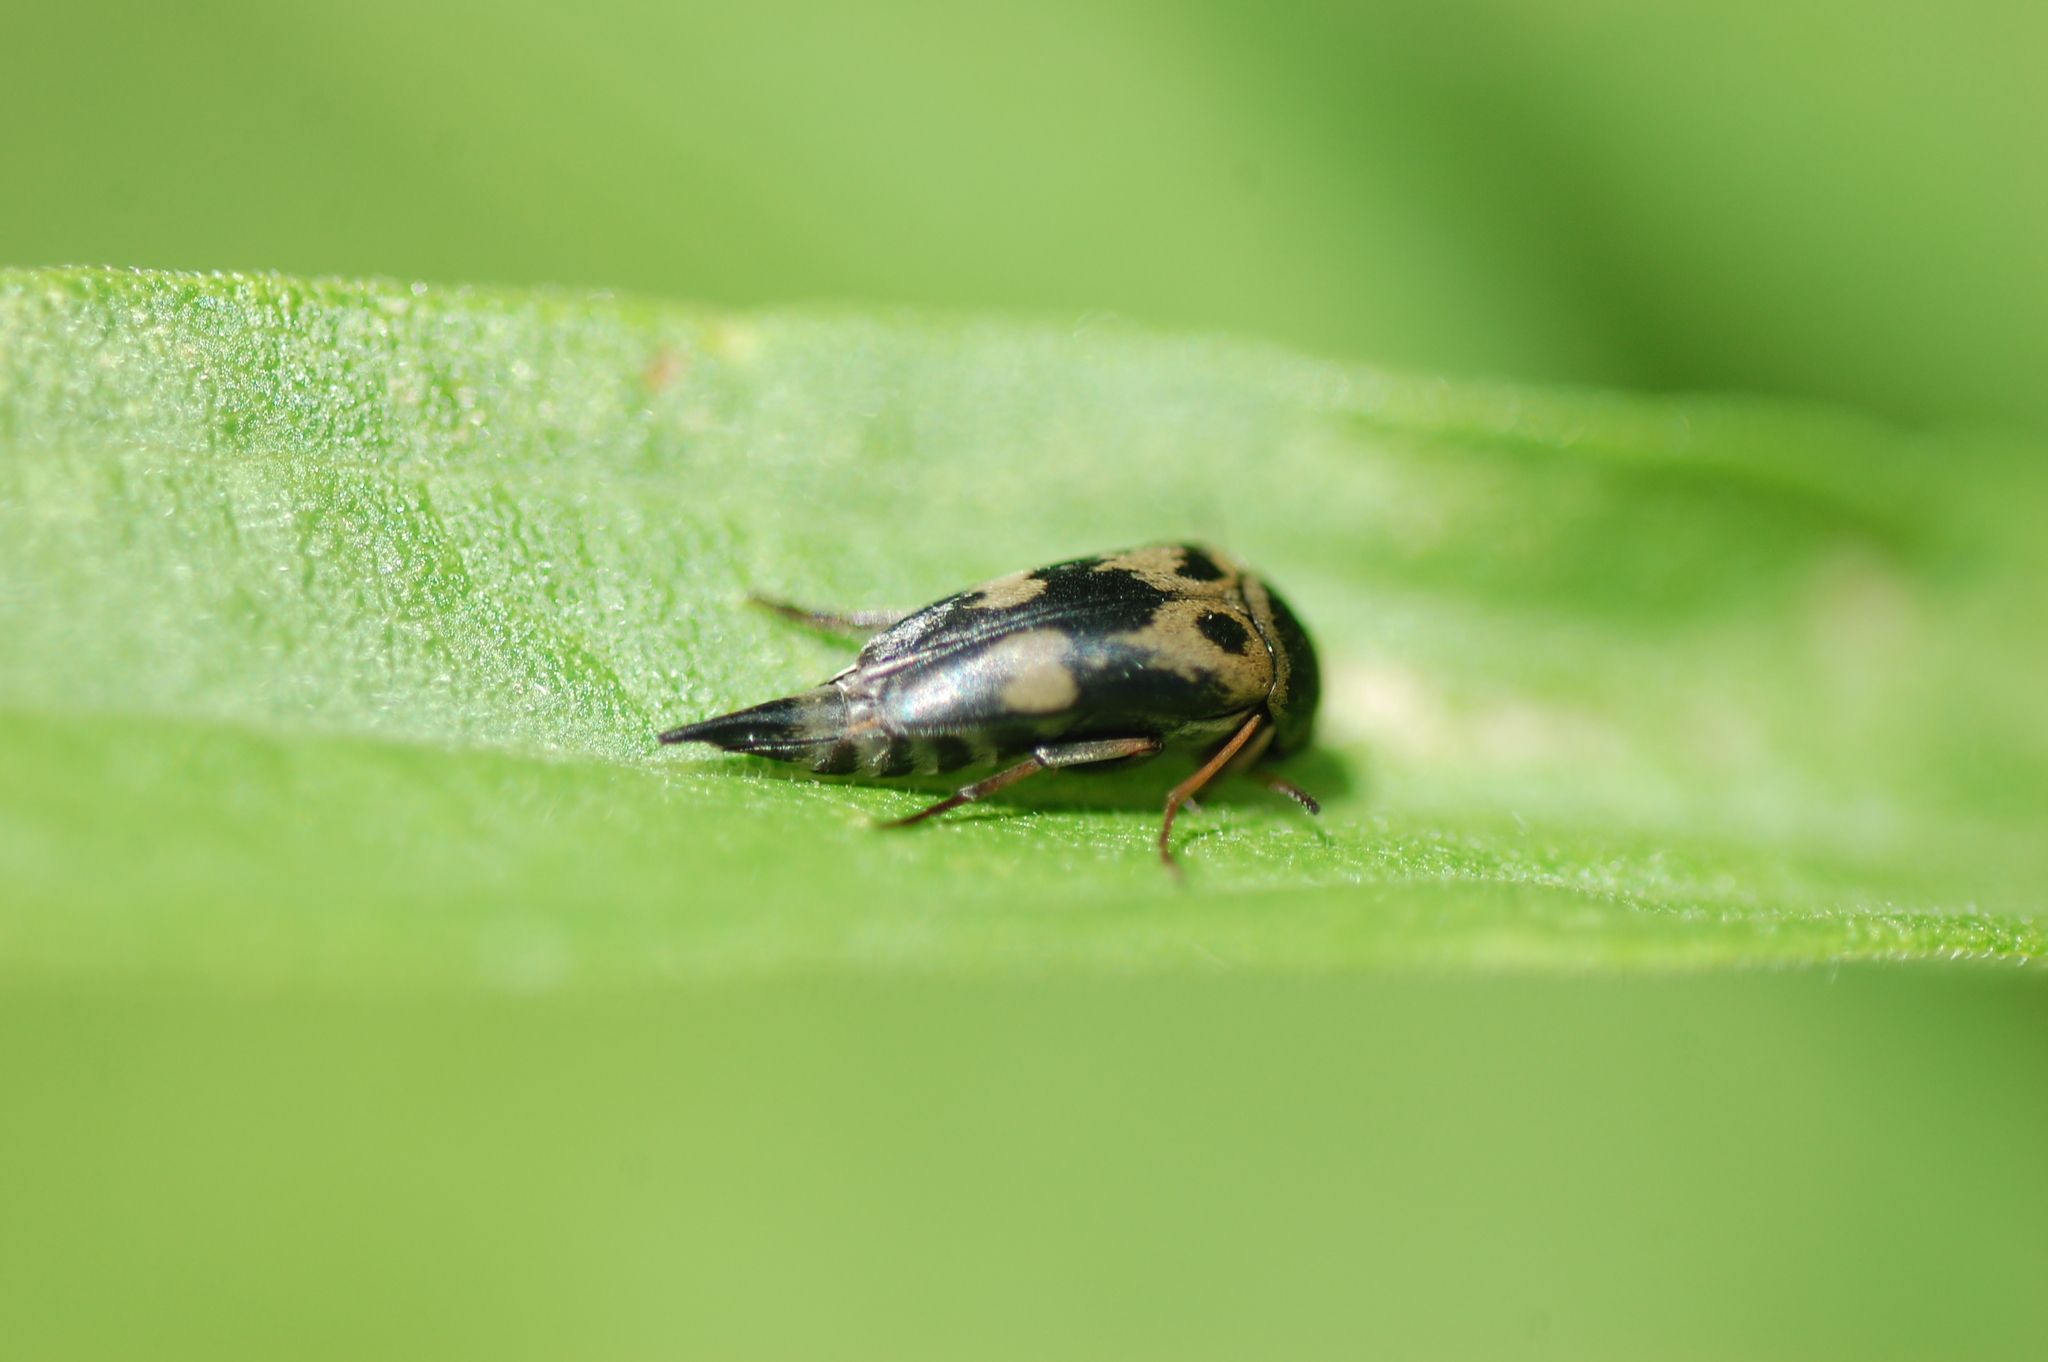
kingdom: Animalia
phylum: Arthropoda
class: Insecta
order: Coleoptera
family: Mordellidae
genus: Glipa
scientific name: Glipa oculata
